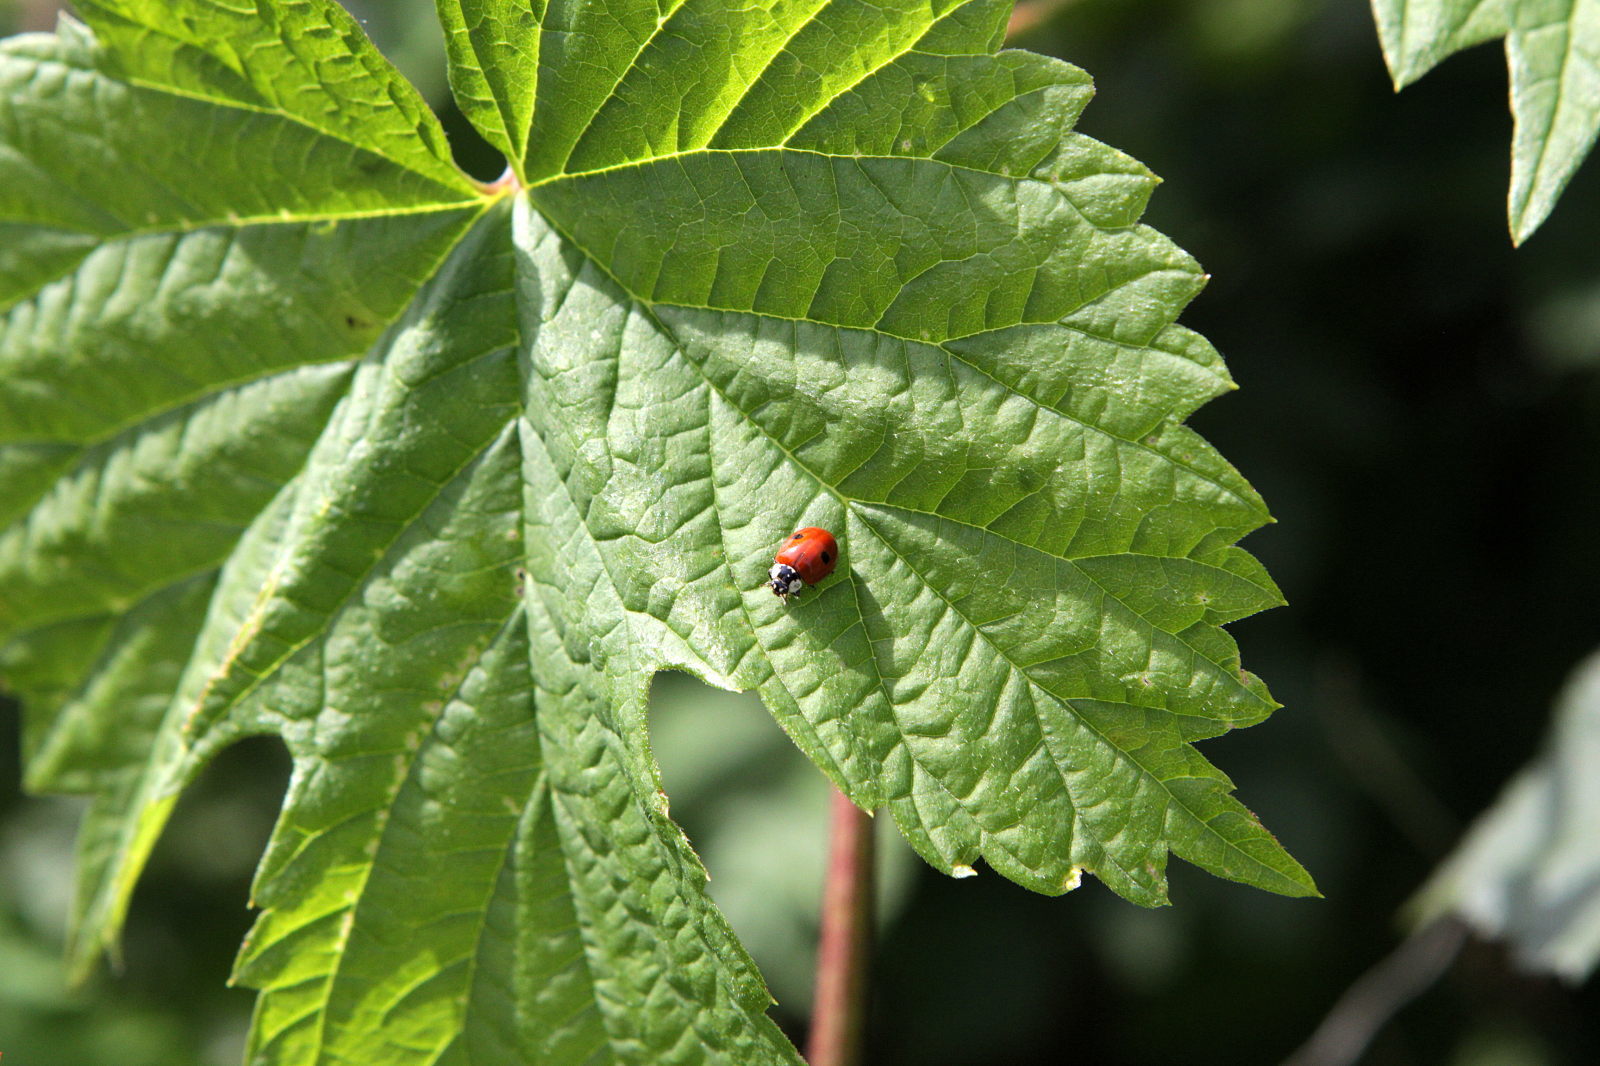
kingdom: Animalia
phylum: Arthropoda
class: Insecta
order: Coleoptera
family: Coccinellidae
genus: Adalia
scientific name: Adalia bipunctata
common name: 2-spot ladybird
